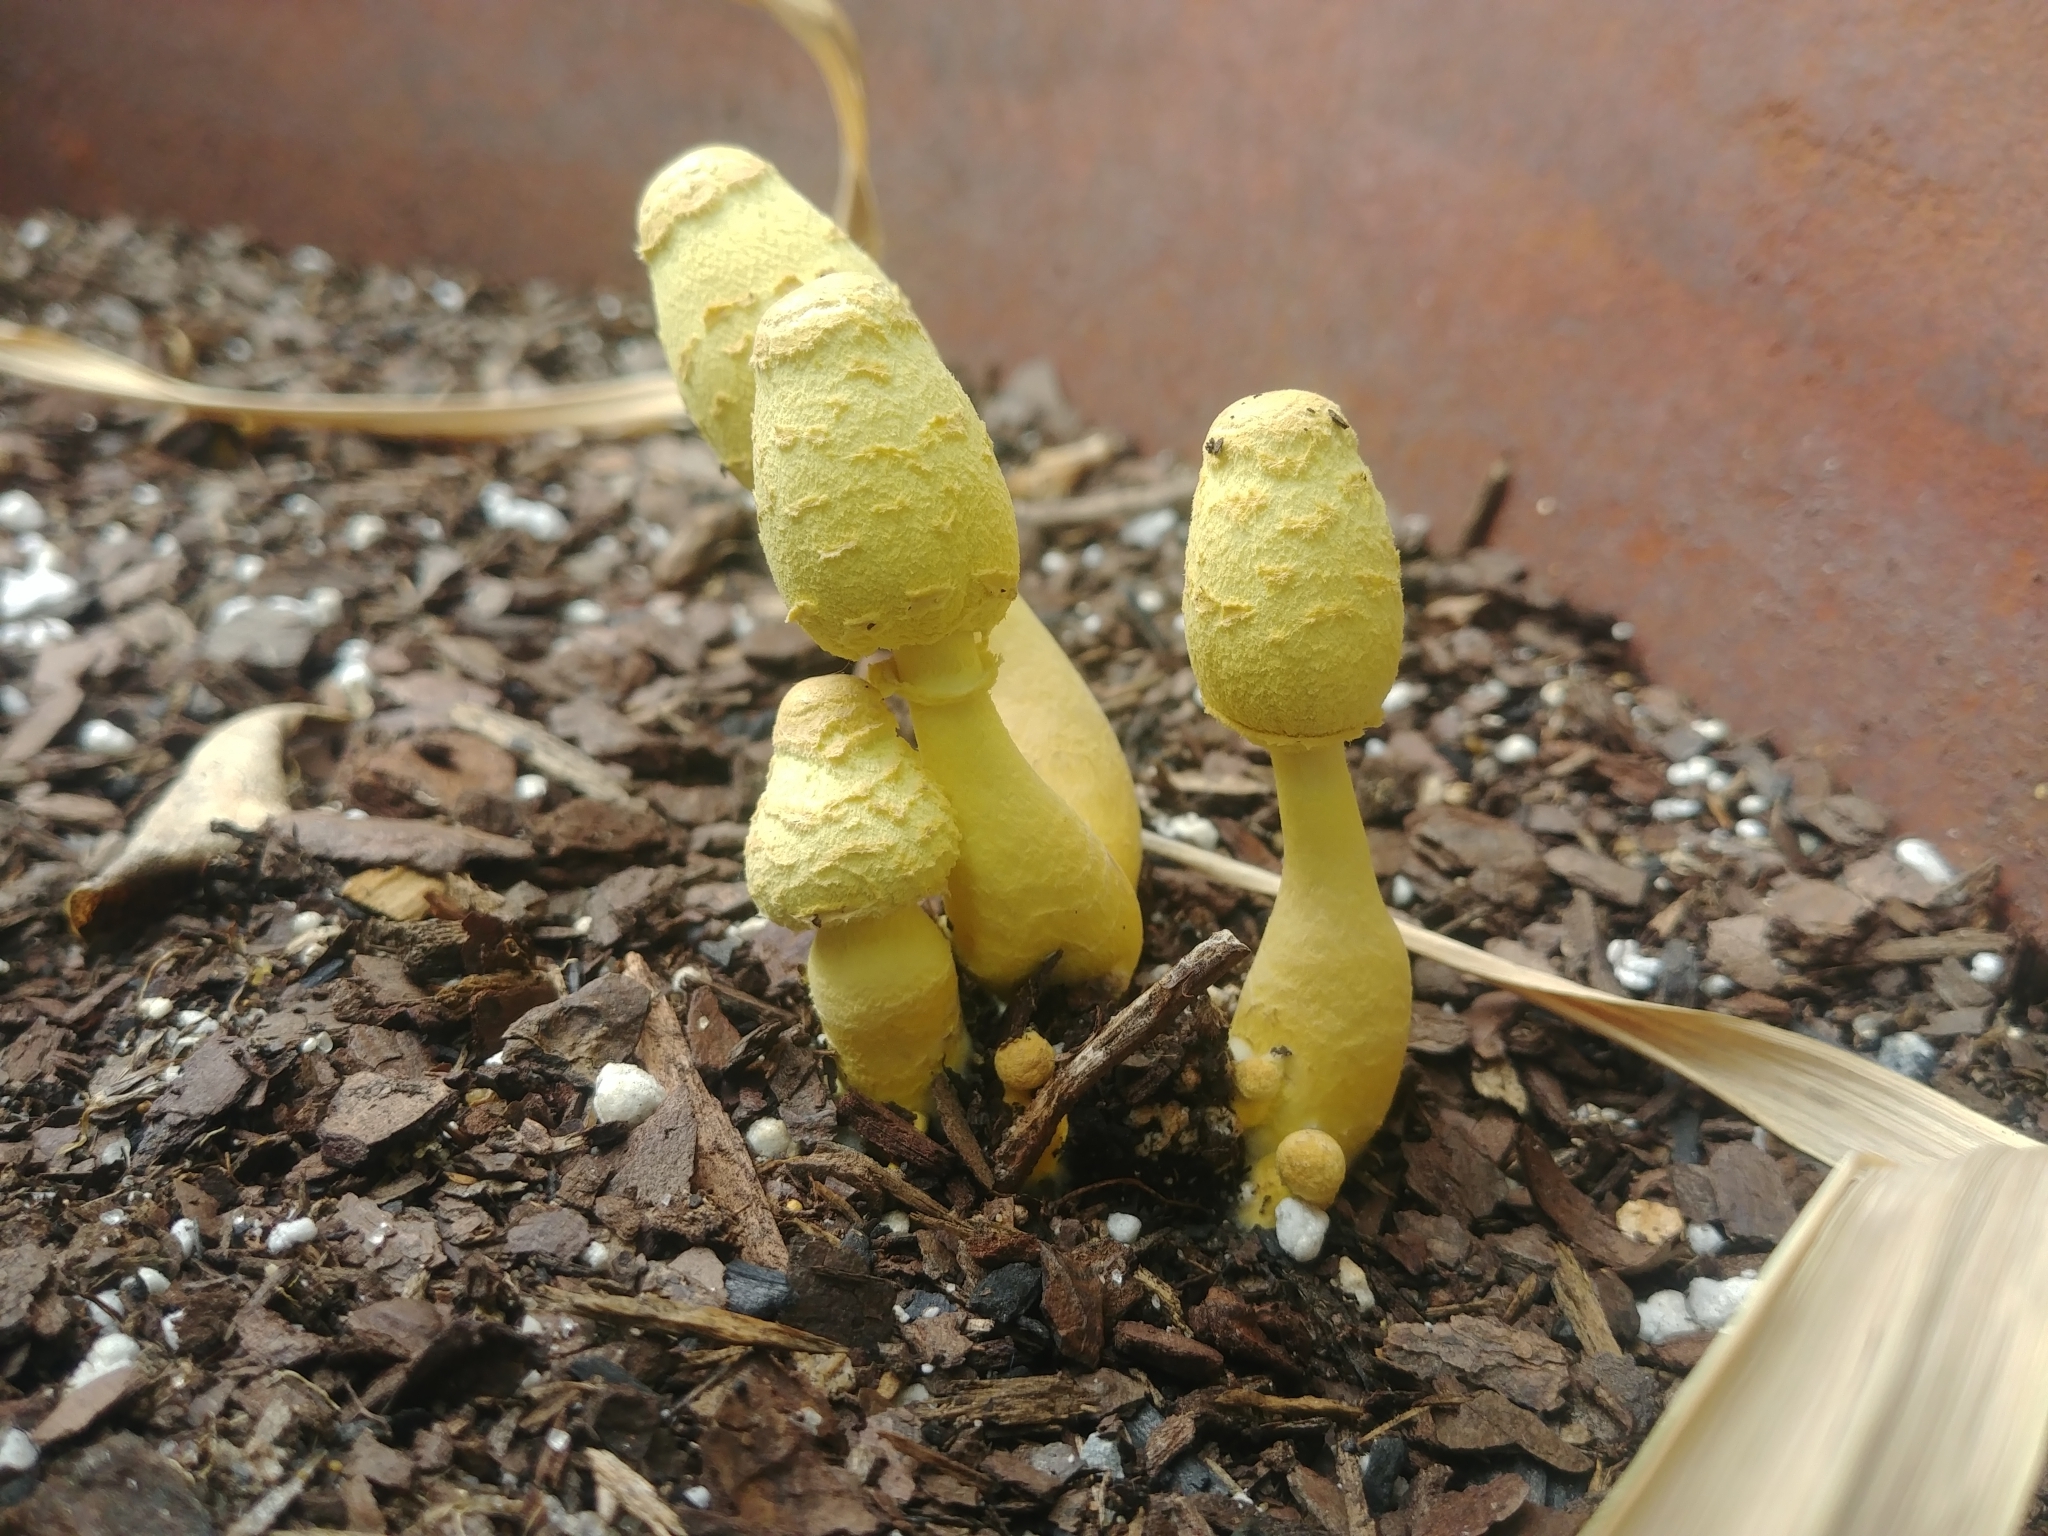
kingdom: Fungi
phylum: Basidiomycota
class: Agaricomycetes
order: Agaricales
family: Agaricaceae
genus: Leucocoprinus
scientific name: Leucocoprinus birnbaumii
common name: Plantpot dapperling
